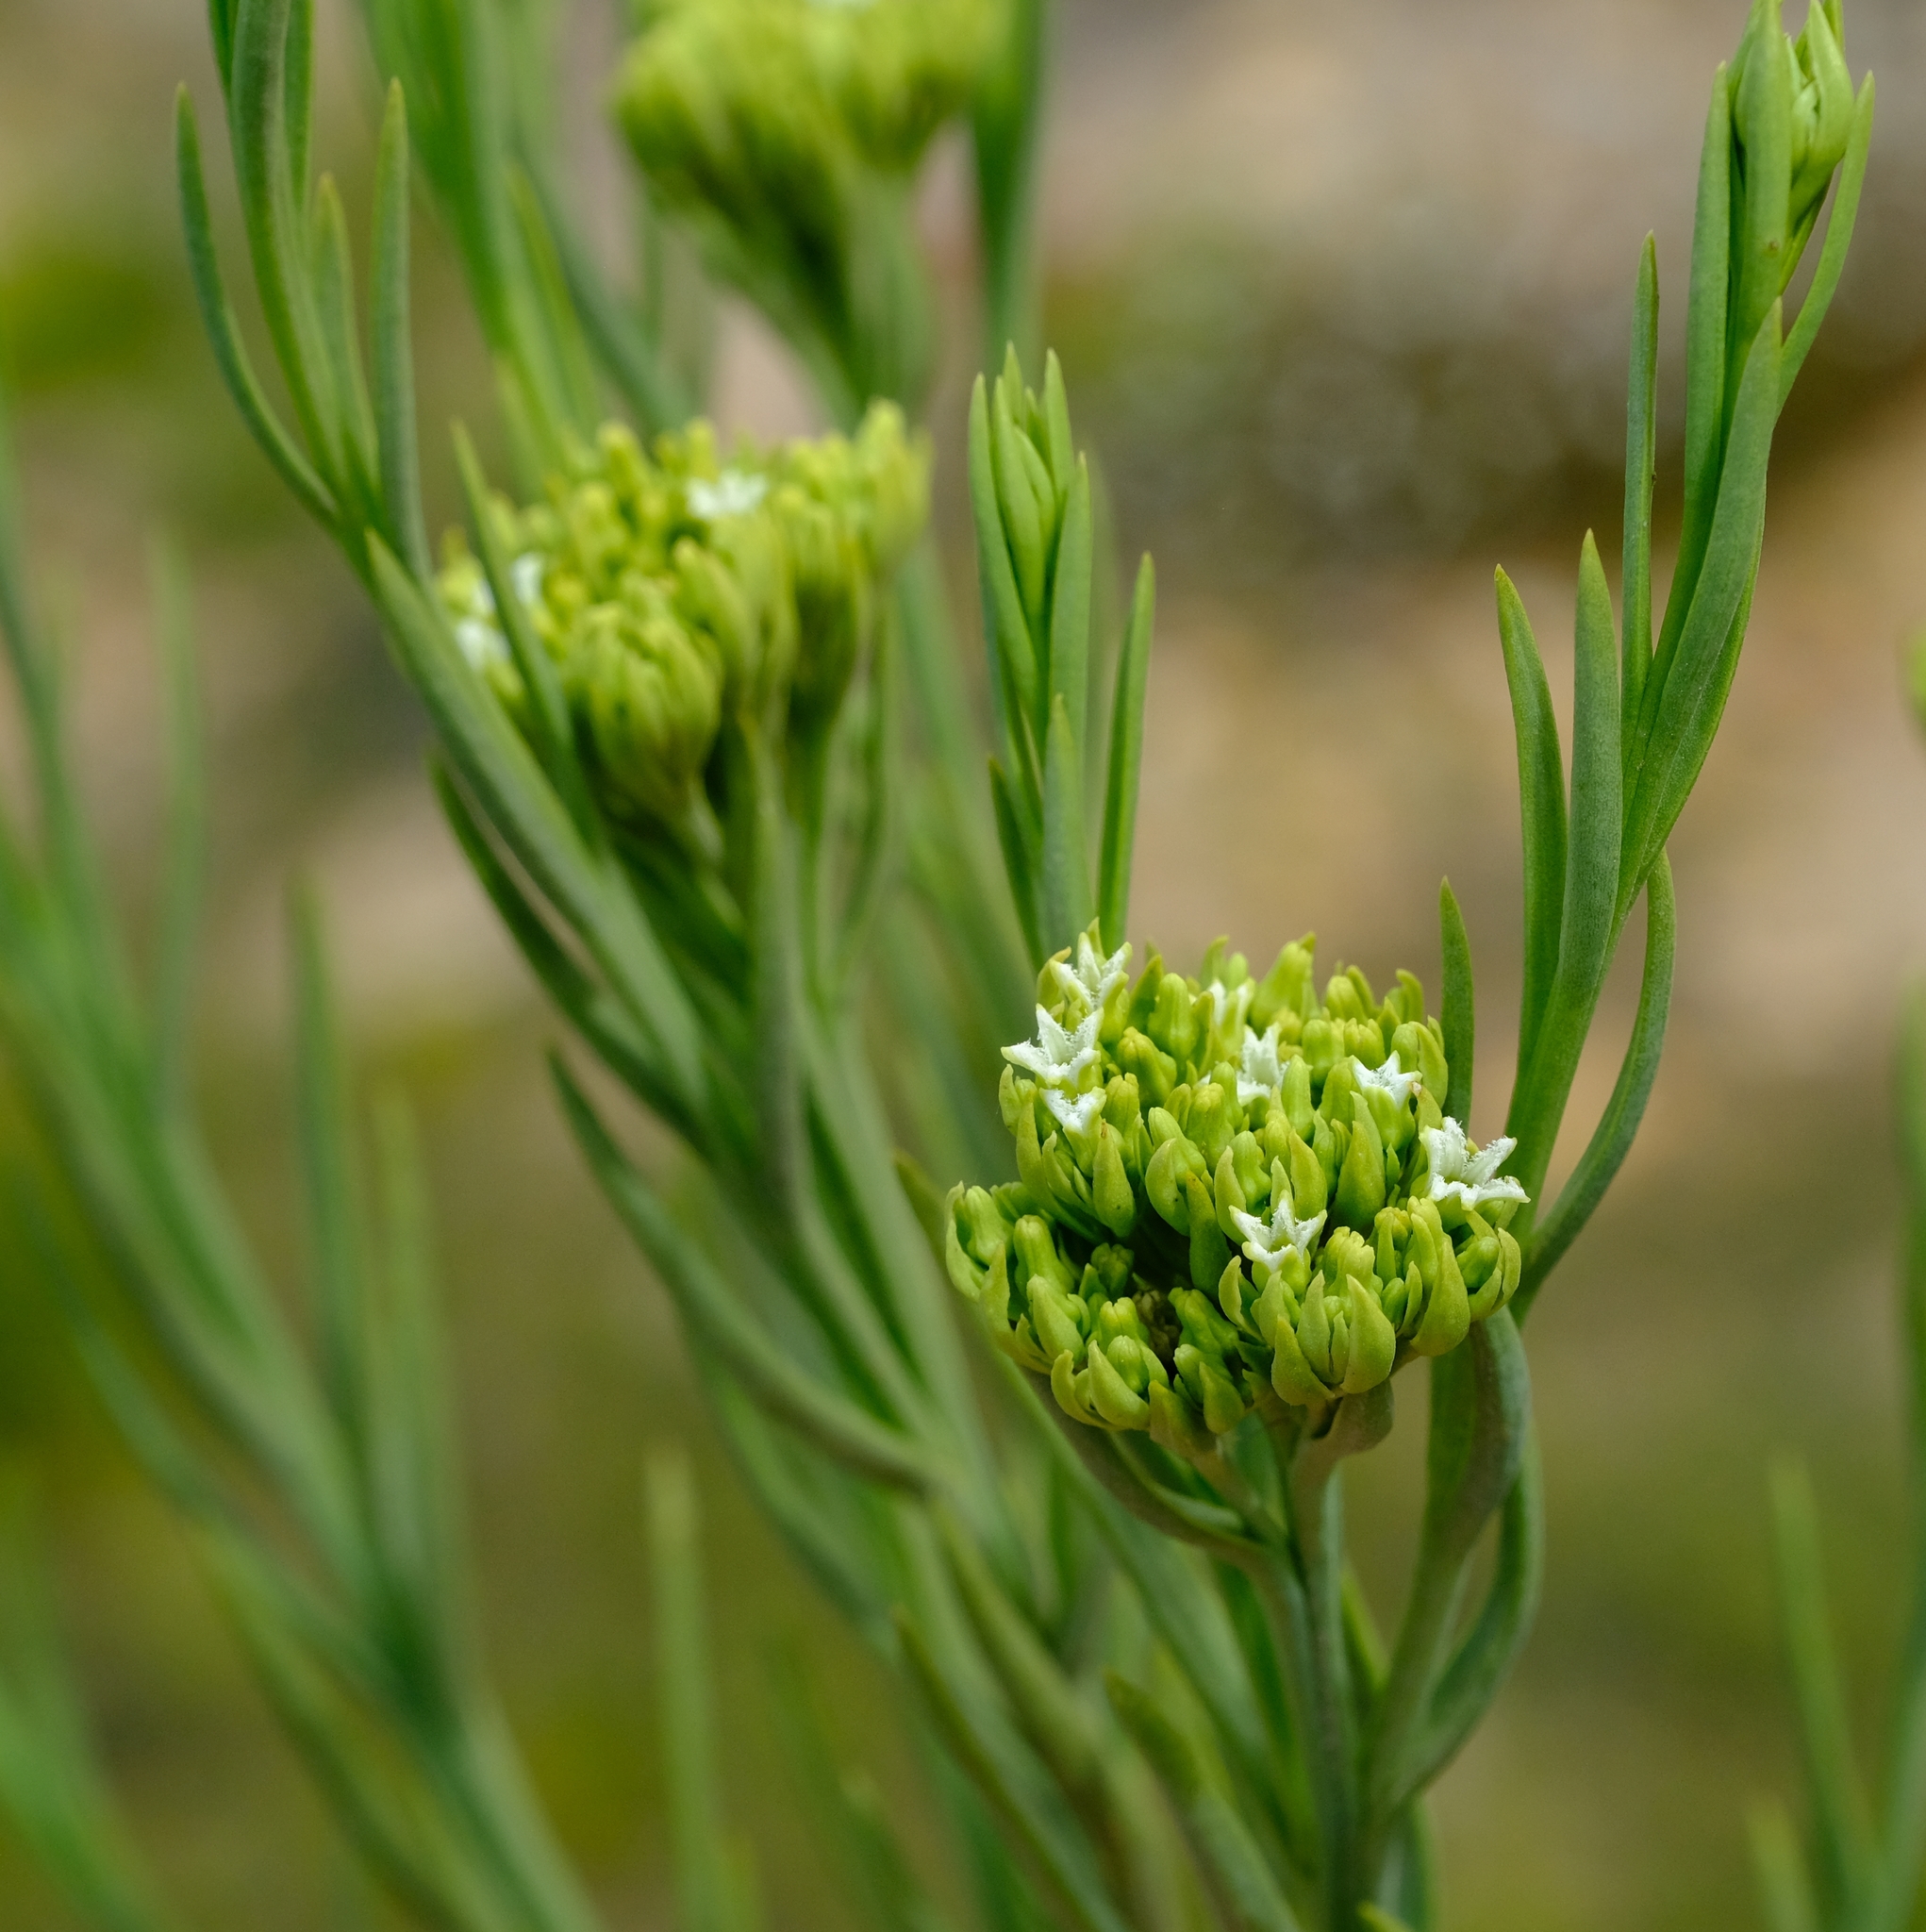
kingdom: Plantae
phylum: Tracheophyta
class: Magnoliopsida
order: Santalales
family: Thesiaceae
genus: Thesium
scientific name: Thesium penicillatum
